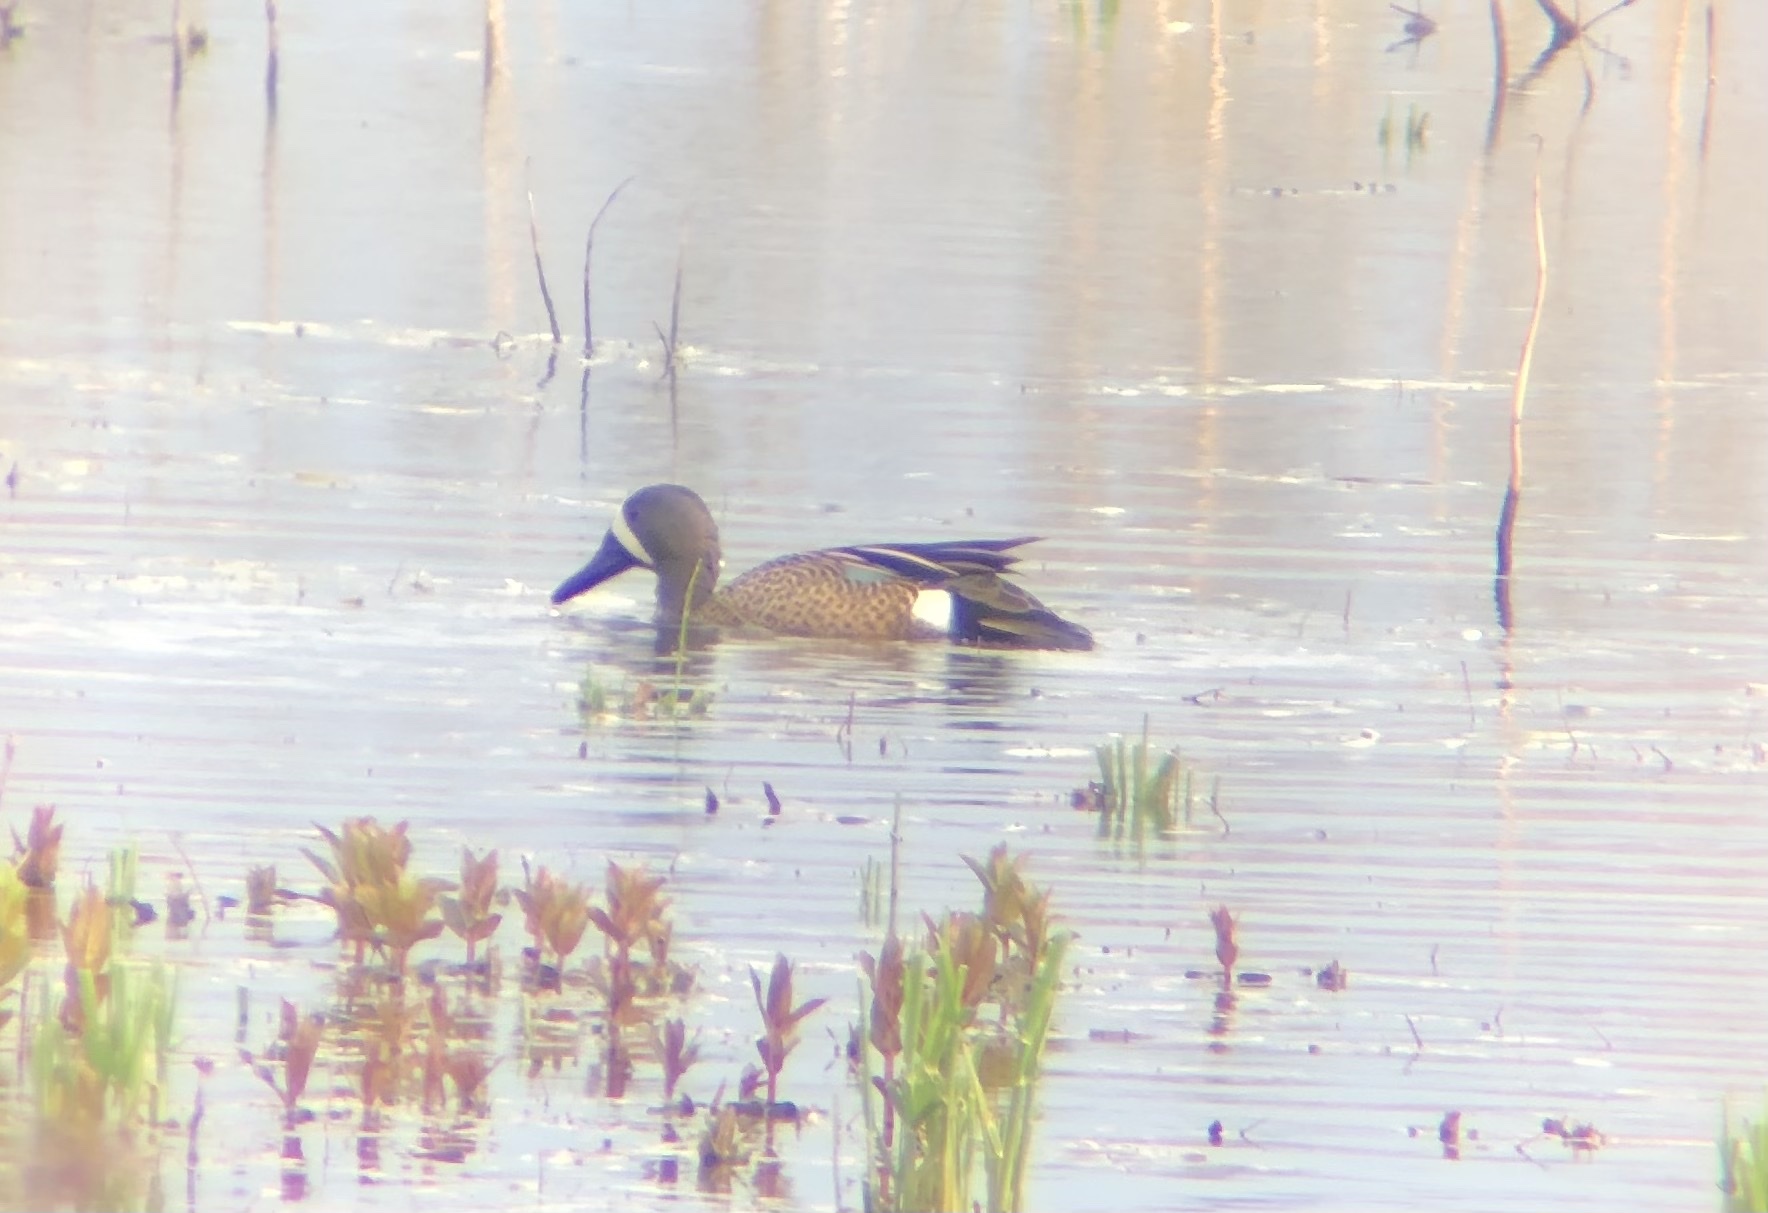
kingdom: Animalia
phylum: Chordata
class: Aves
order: Anseriformes
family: Anatidae
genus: Spatula
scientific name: Spatula discors
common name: Blue-winged teal
